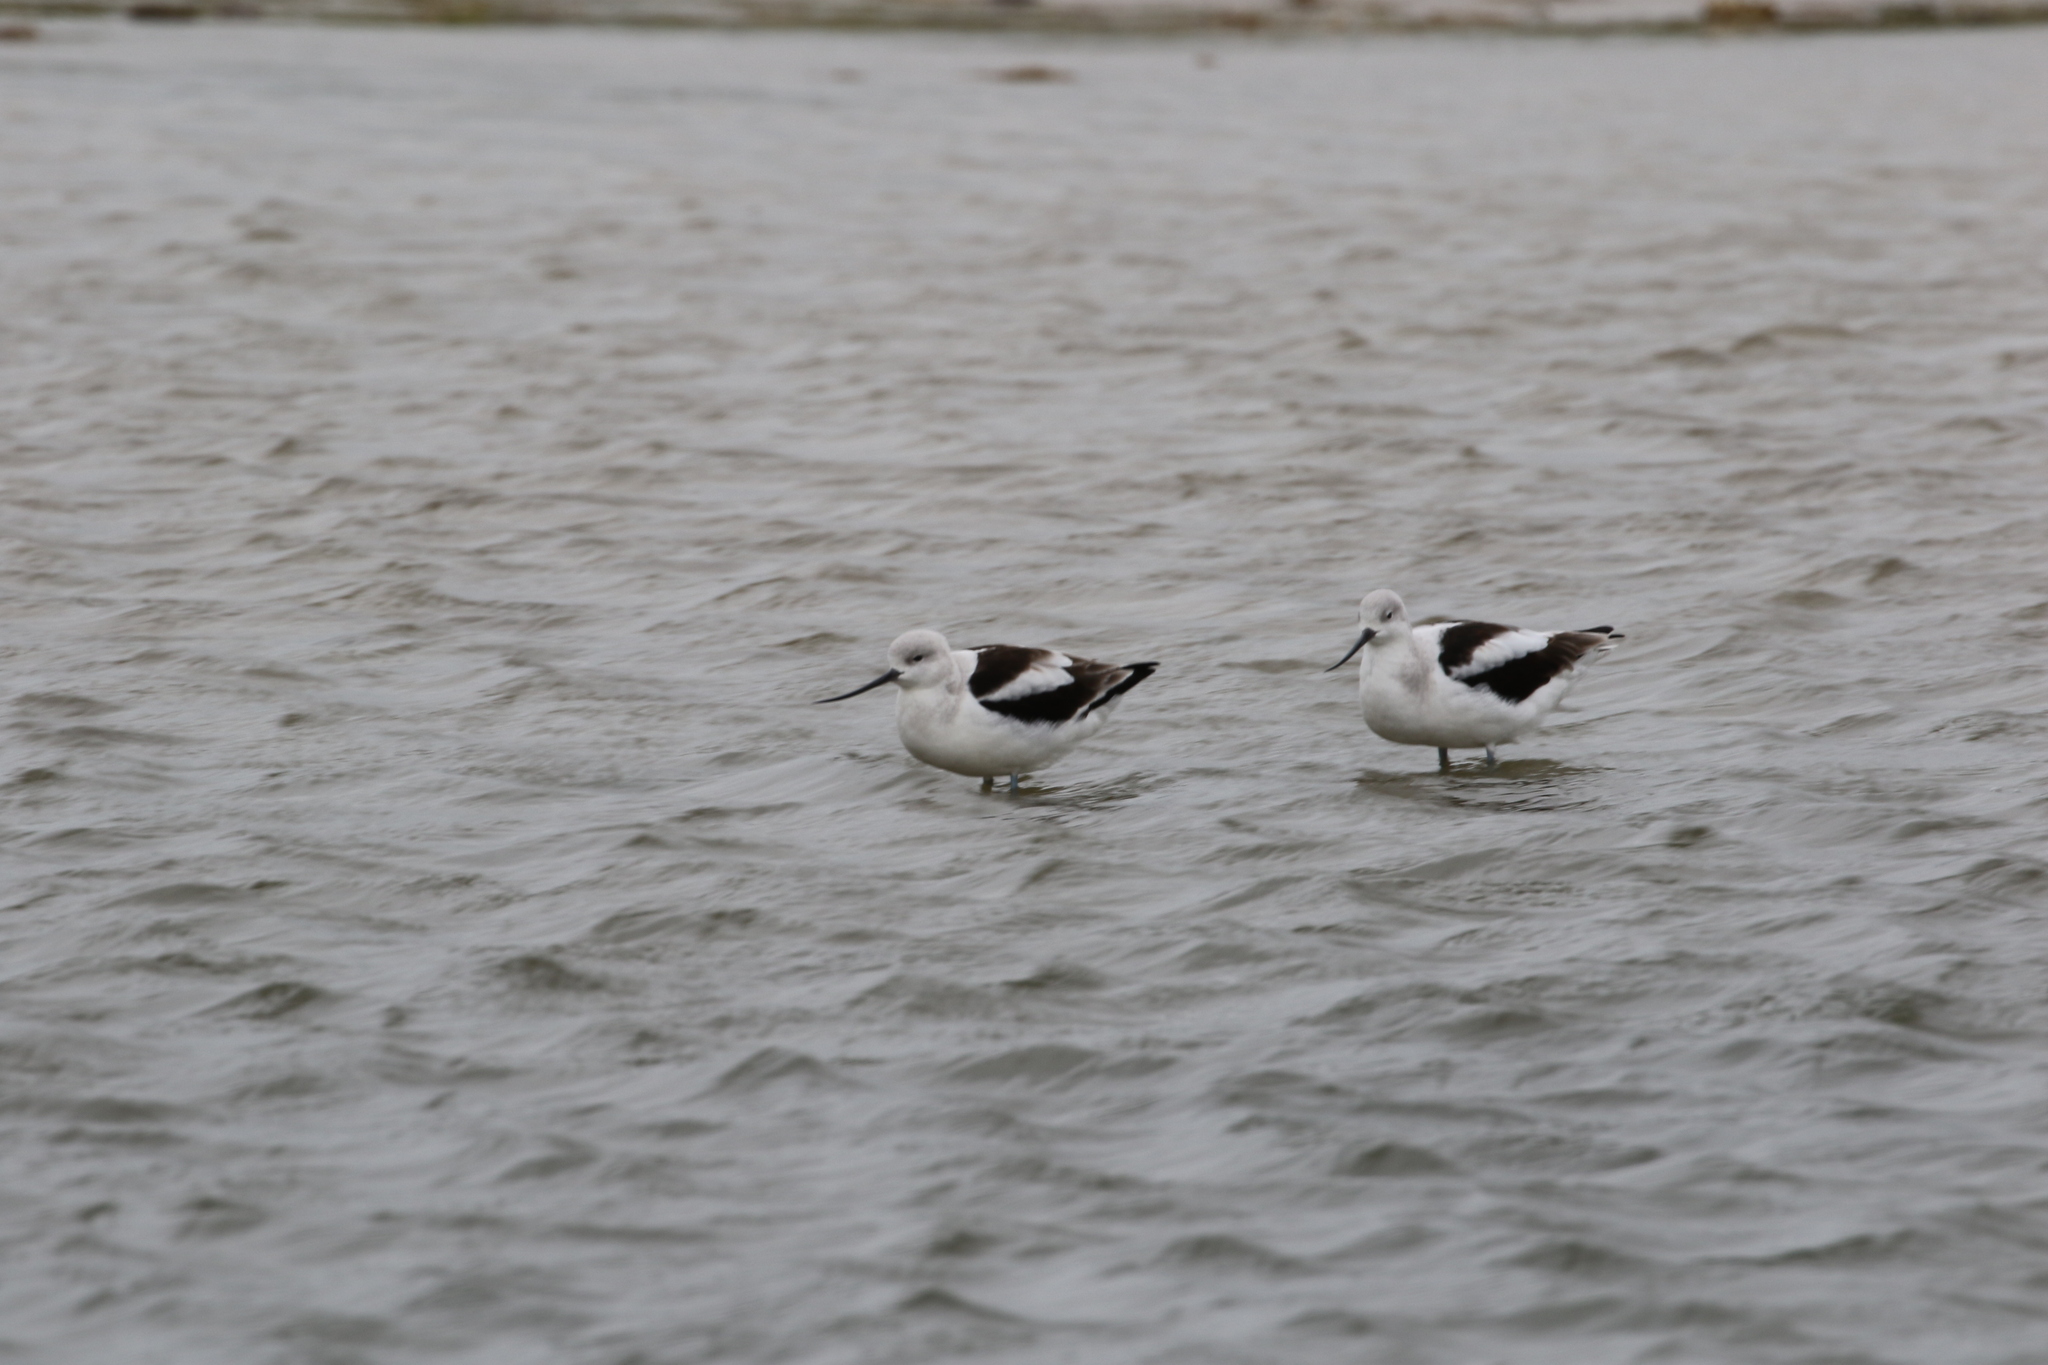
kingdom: Animalia
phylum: Chordata
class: Aves
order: Charadriiformes
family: Recurvirostridae
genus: Recurvirostra
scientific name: Recurvirostra americana
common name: American avocet
